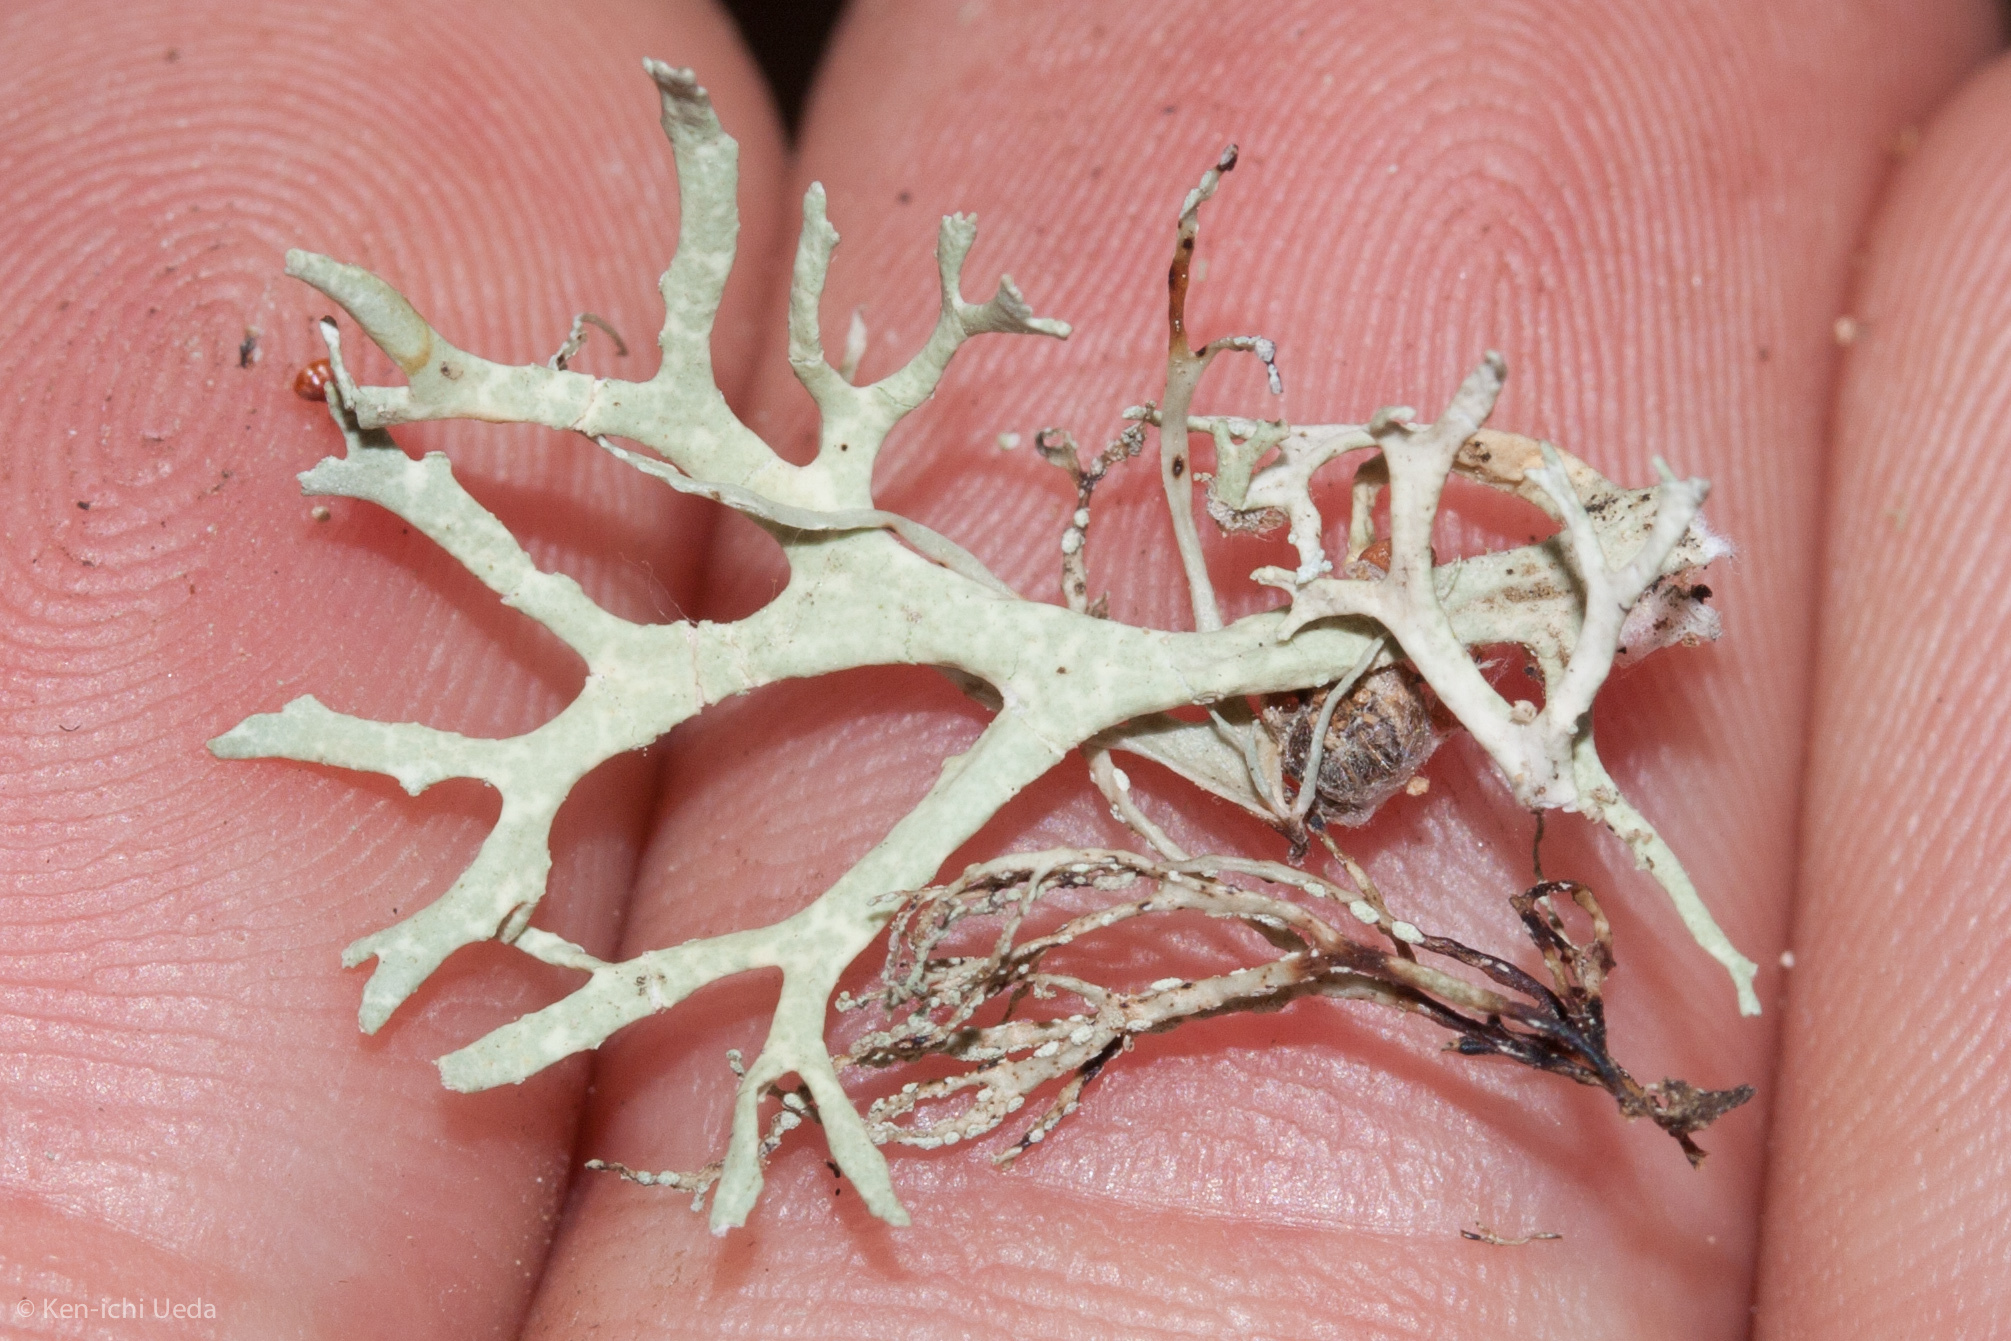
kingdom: Fungi
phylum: Ascomycota
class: Lecanoromycetes
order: Lecanorales
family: Parmeliaceae
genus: Evernia
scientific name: Evernia prunastri
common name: Oak moss
